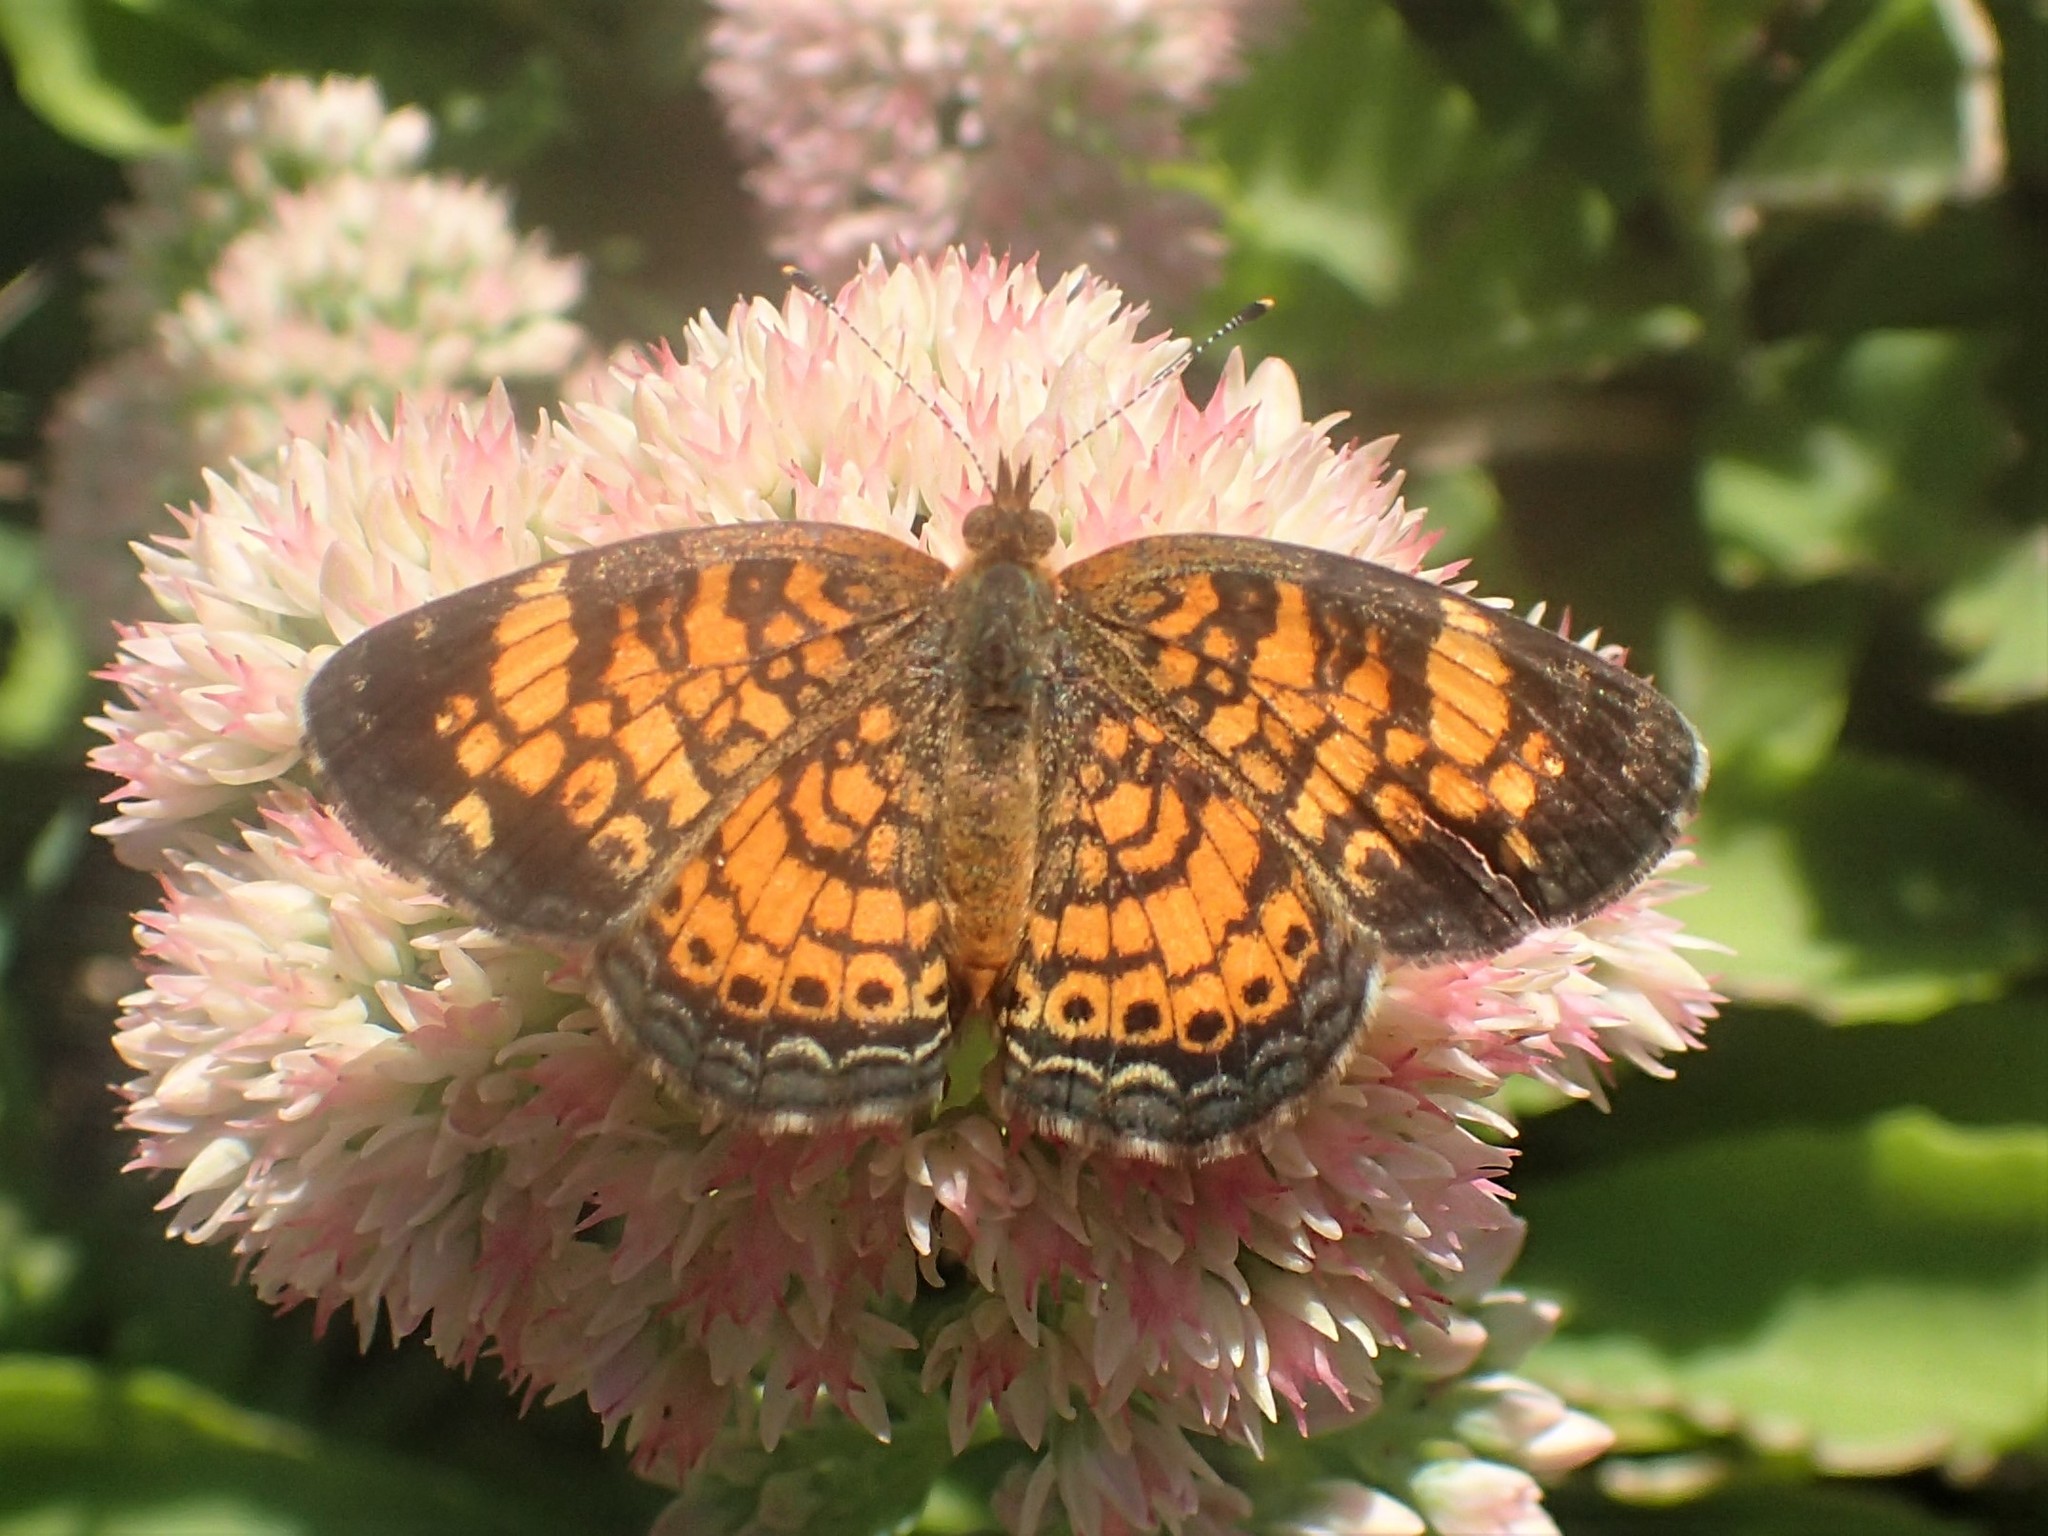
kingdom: Animalia
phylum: Arthropoda
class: Insecta
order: Lepidoptera
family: Nymphalidae
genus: Phyciodes
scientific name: Phyciodes tharos
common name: Pearl crescent
